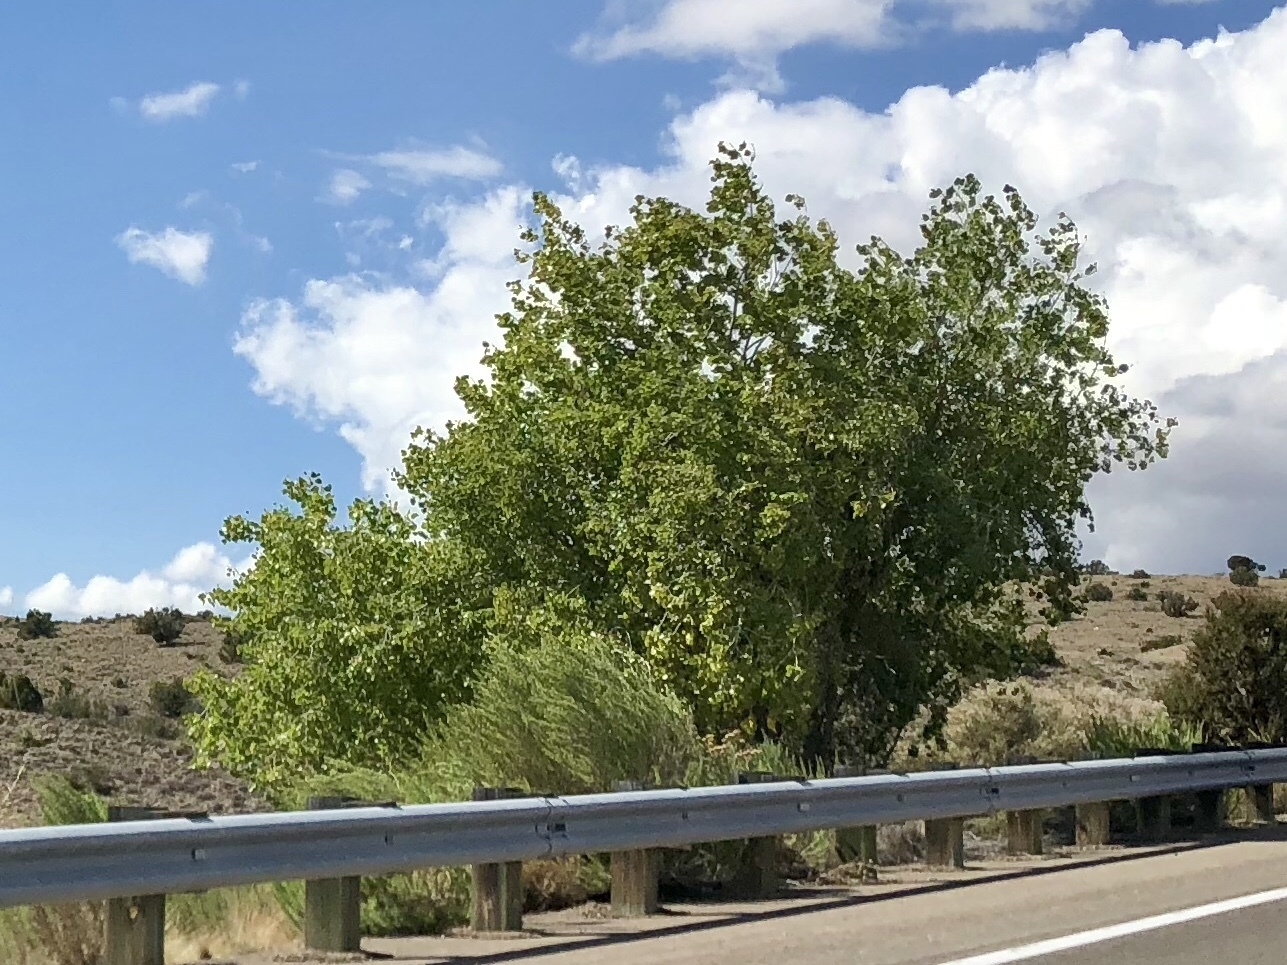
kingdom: Plantae
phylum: Tracheophyta
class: Magnoliopsida
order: Malpighiales
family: Salicaceae
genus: Populus
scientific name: Populus fremontii
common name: Fremont's cottonwood
